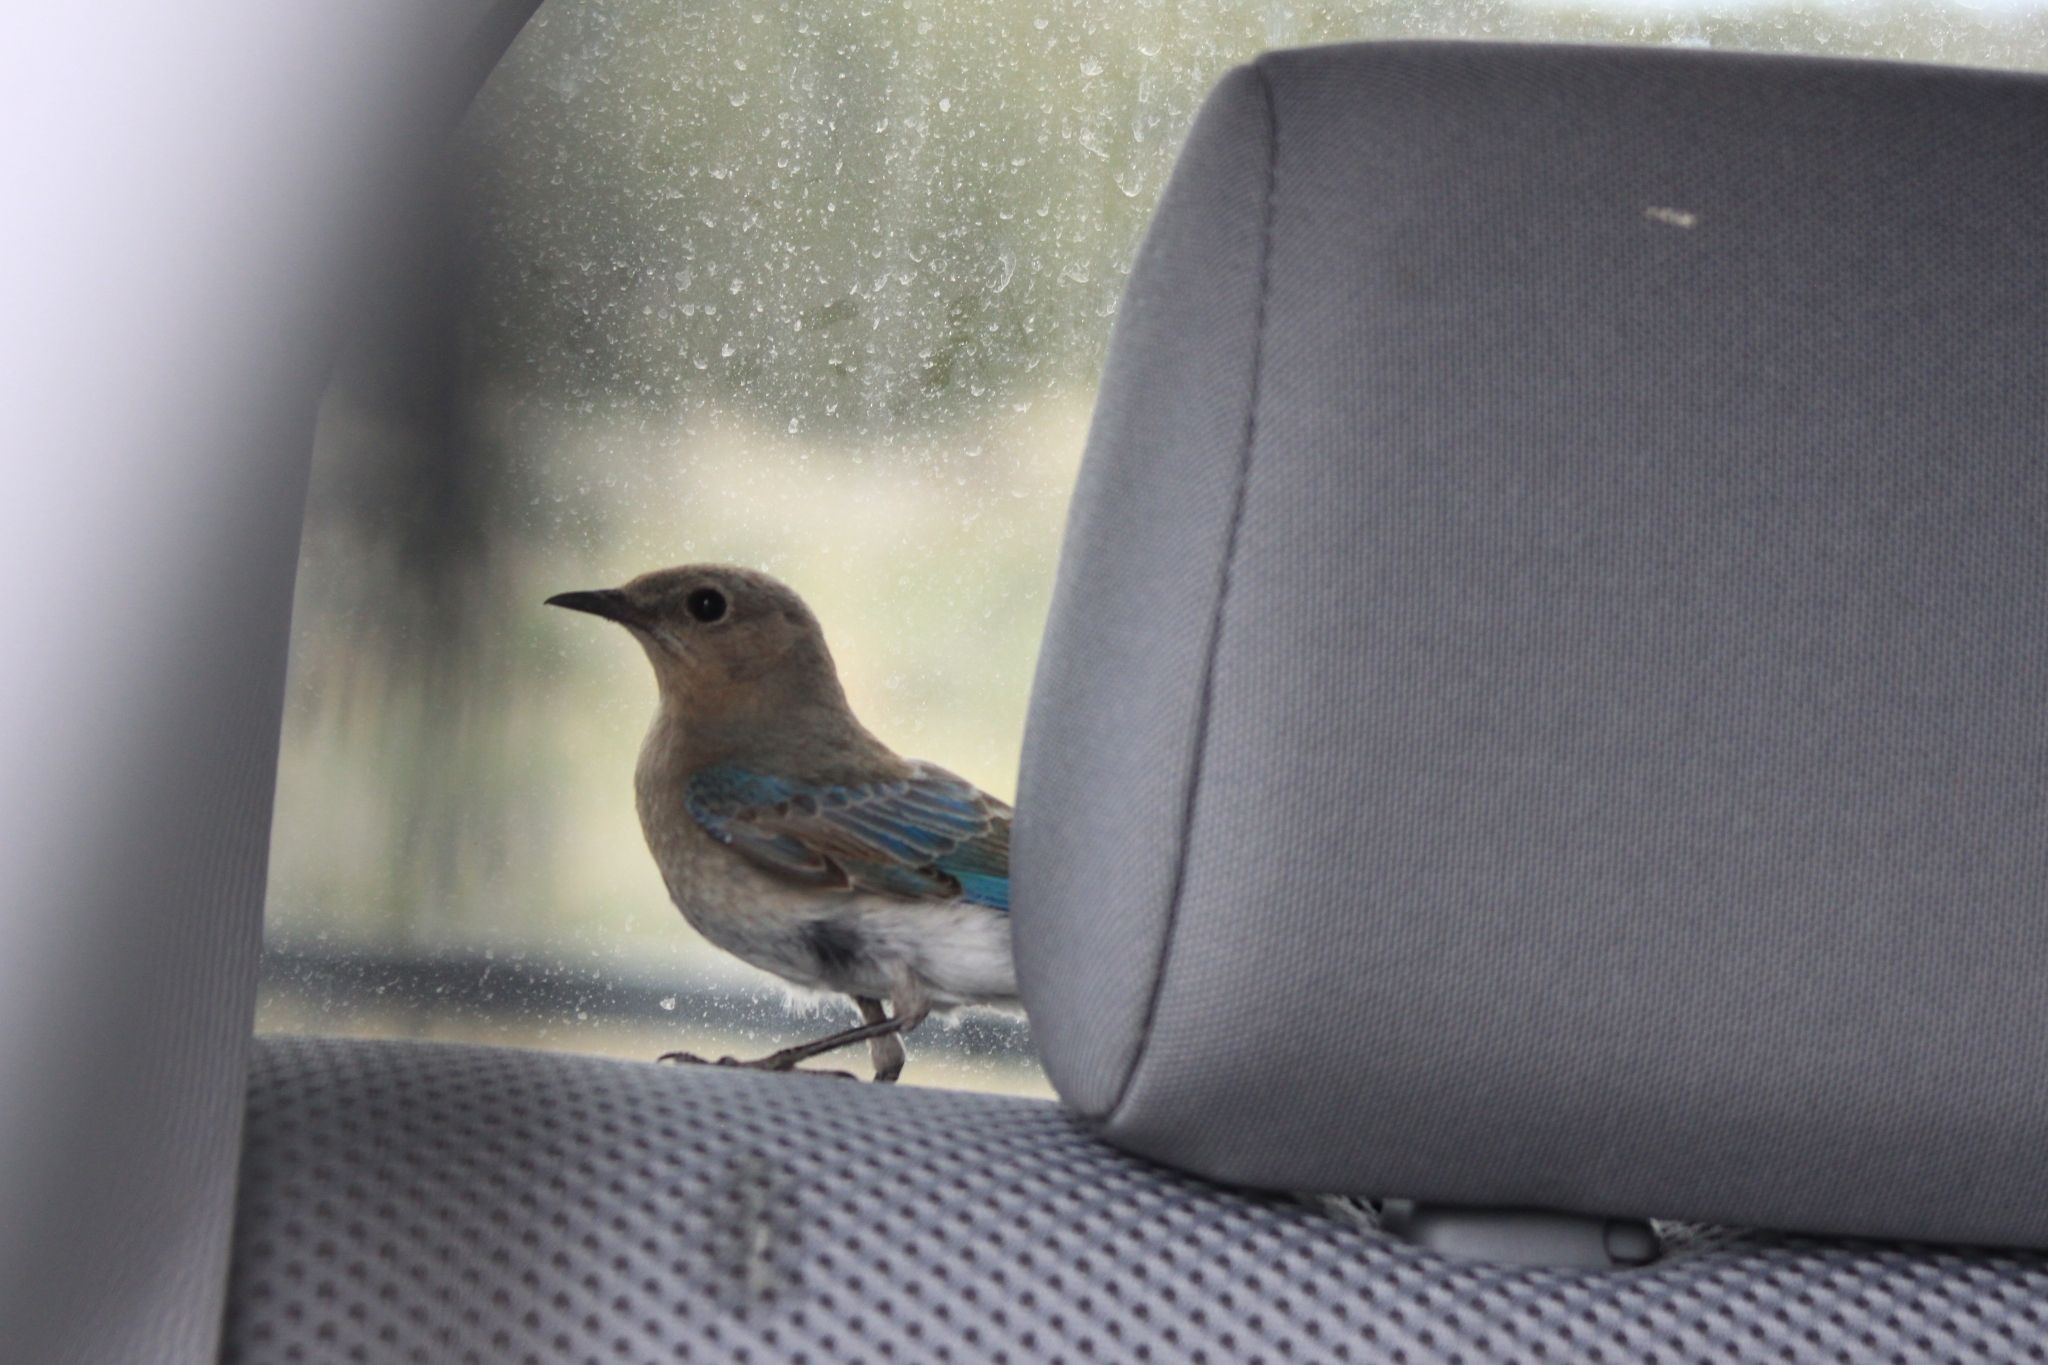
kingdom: Animalia
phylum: Chordata
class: Aves
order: Passeriformes
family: Turdidae
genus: Sialia
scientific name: Sialia currucoides
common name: Mountain bluebird
